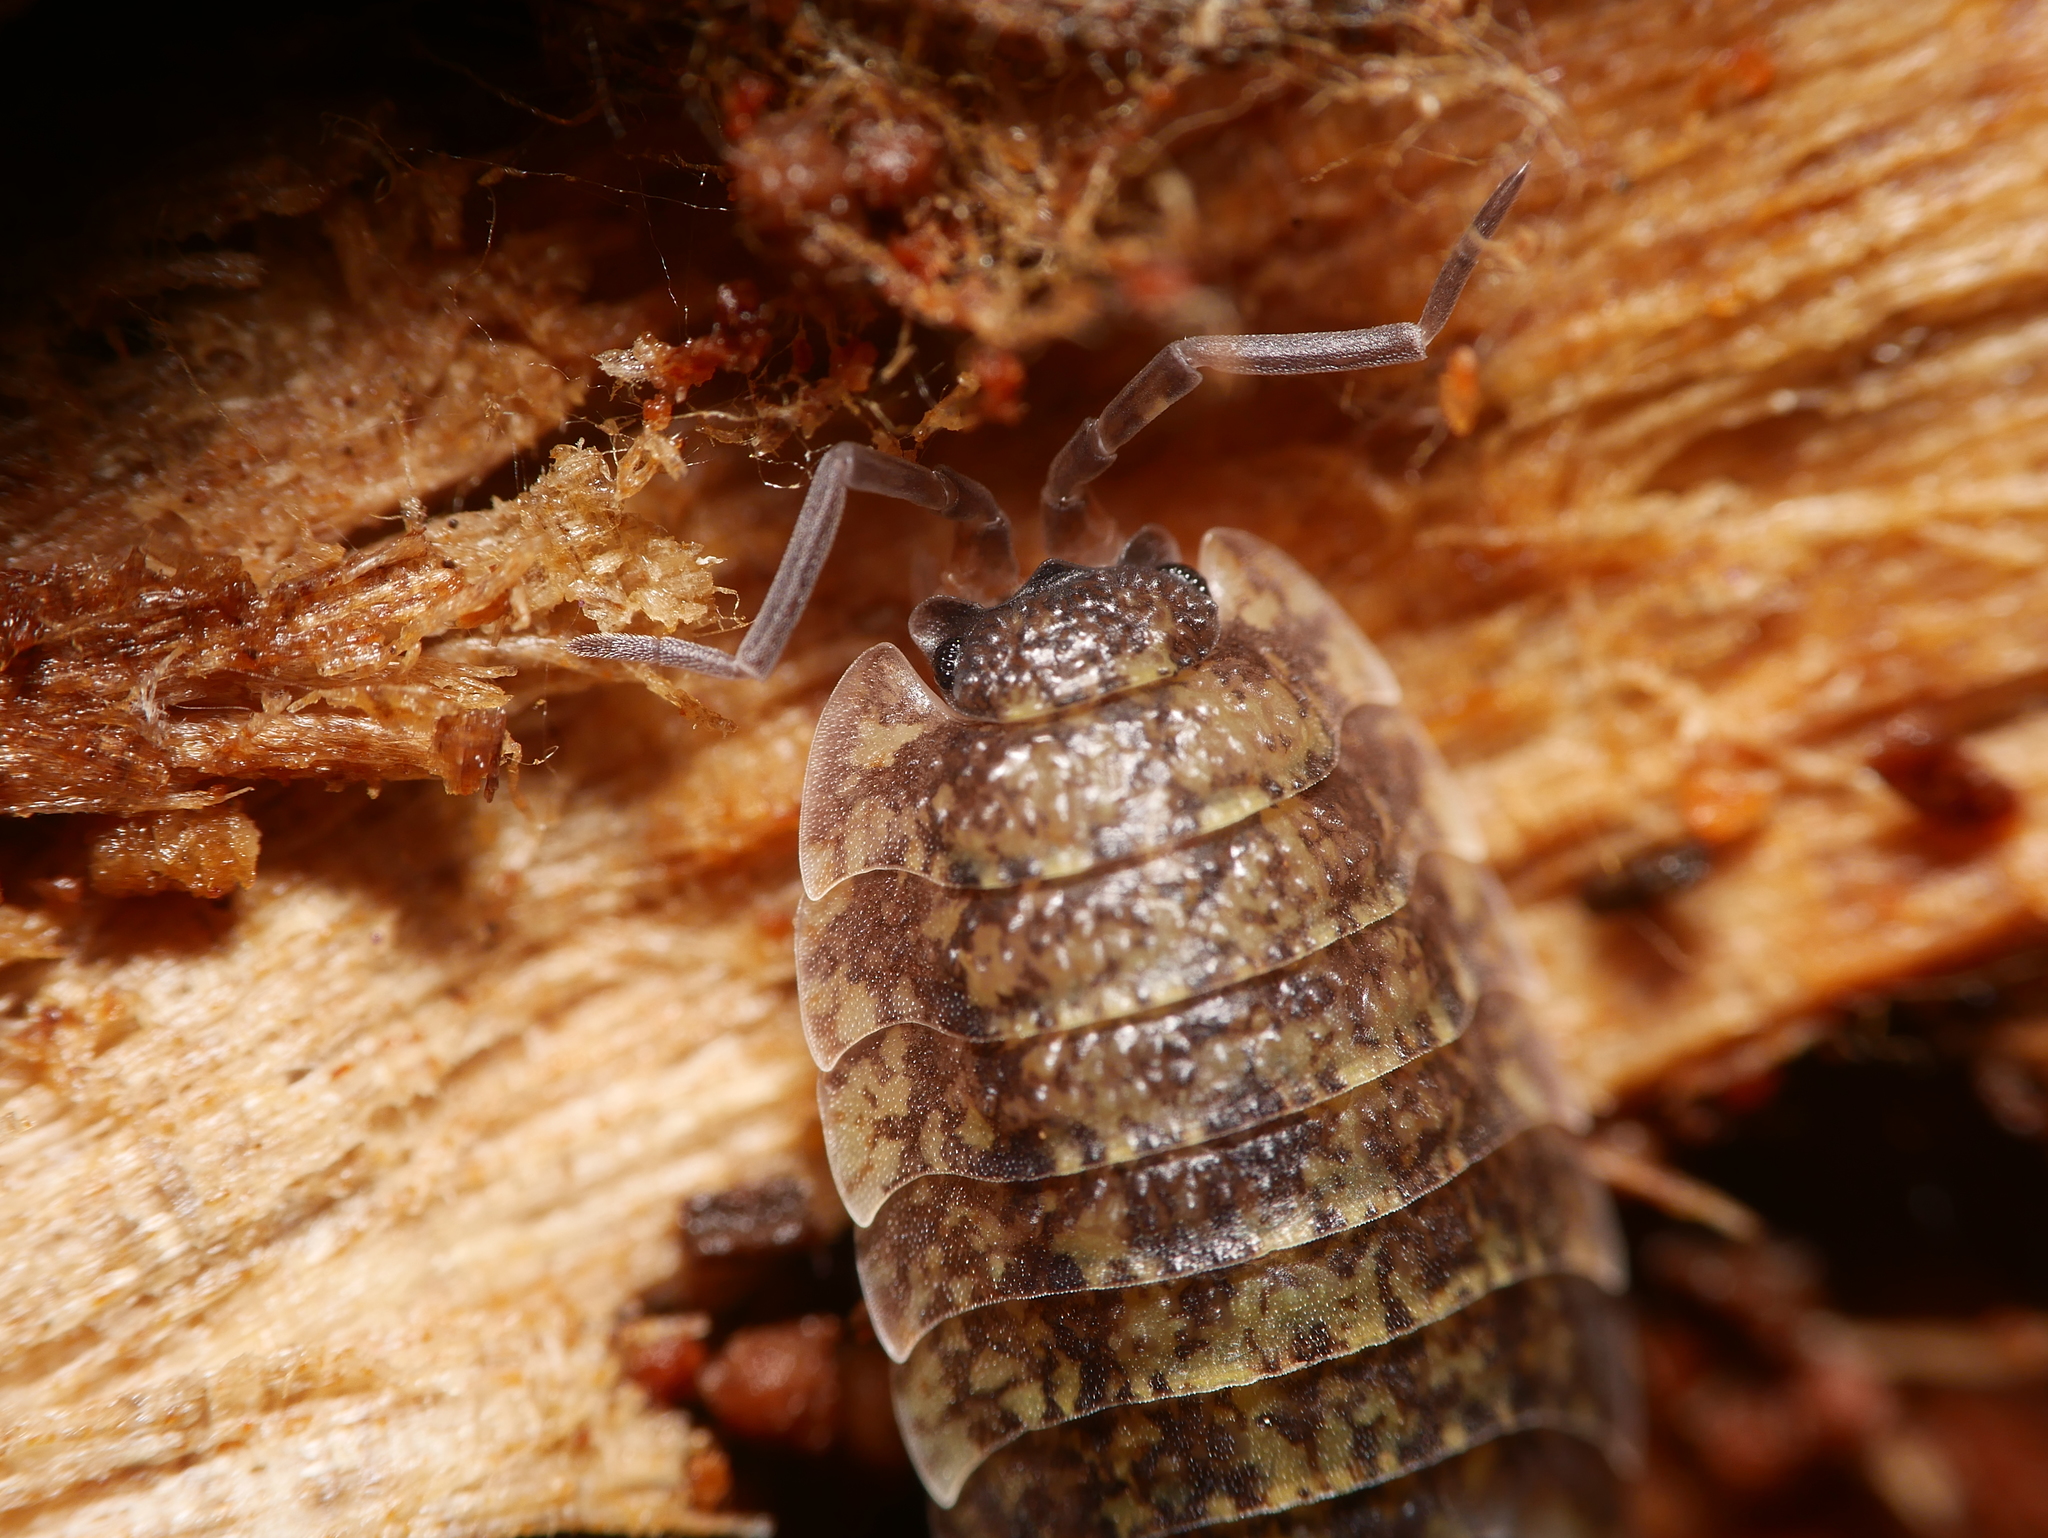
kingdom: Animalia
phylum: Arthropoda
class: Malacostraca
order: Isopoda
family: Porcellionidae
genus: Porcellio
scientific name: Porcellio scaber
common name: Common rough woodlouse
